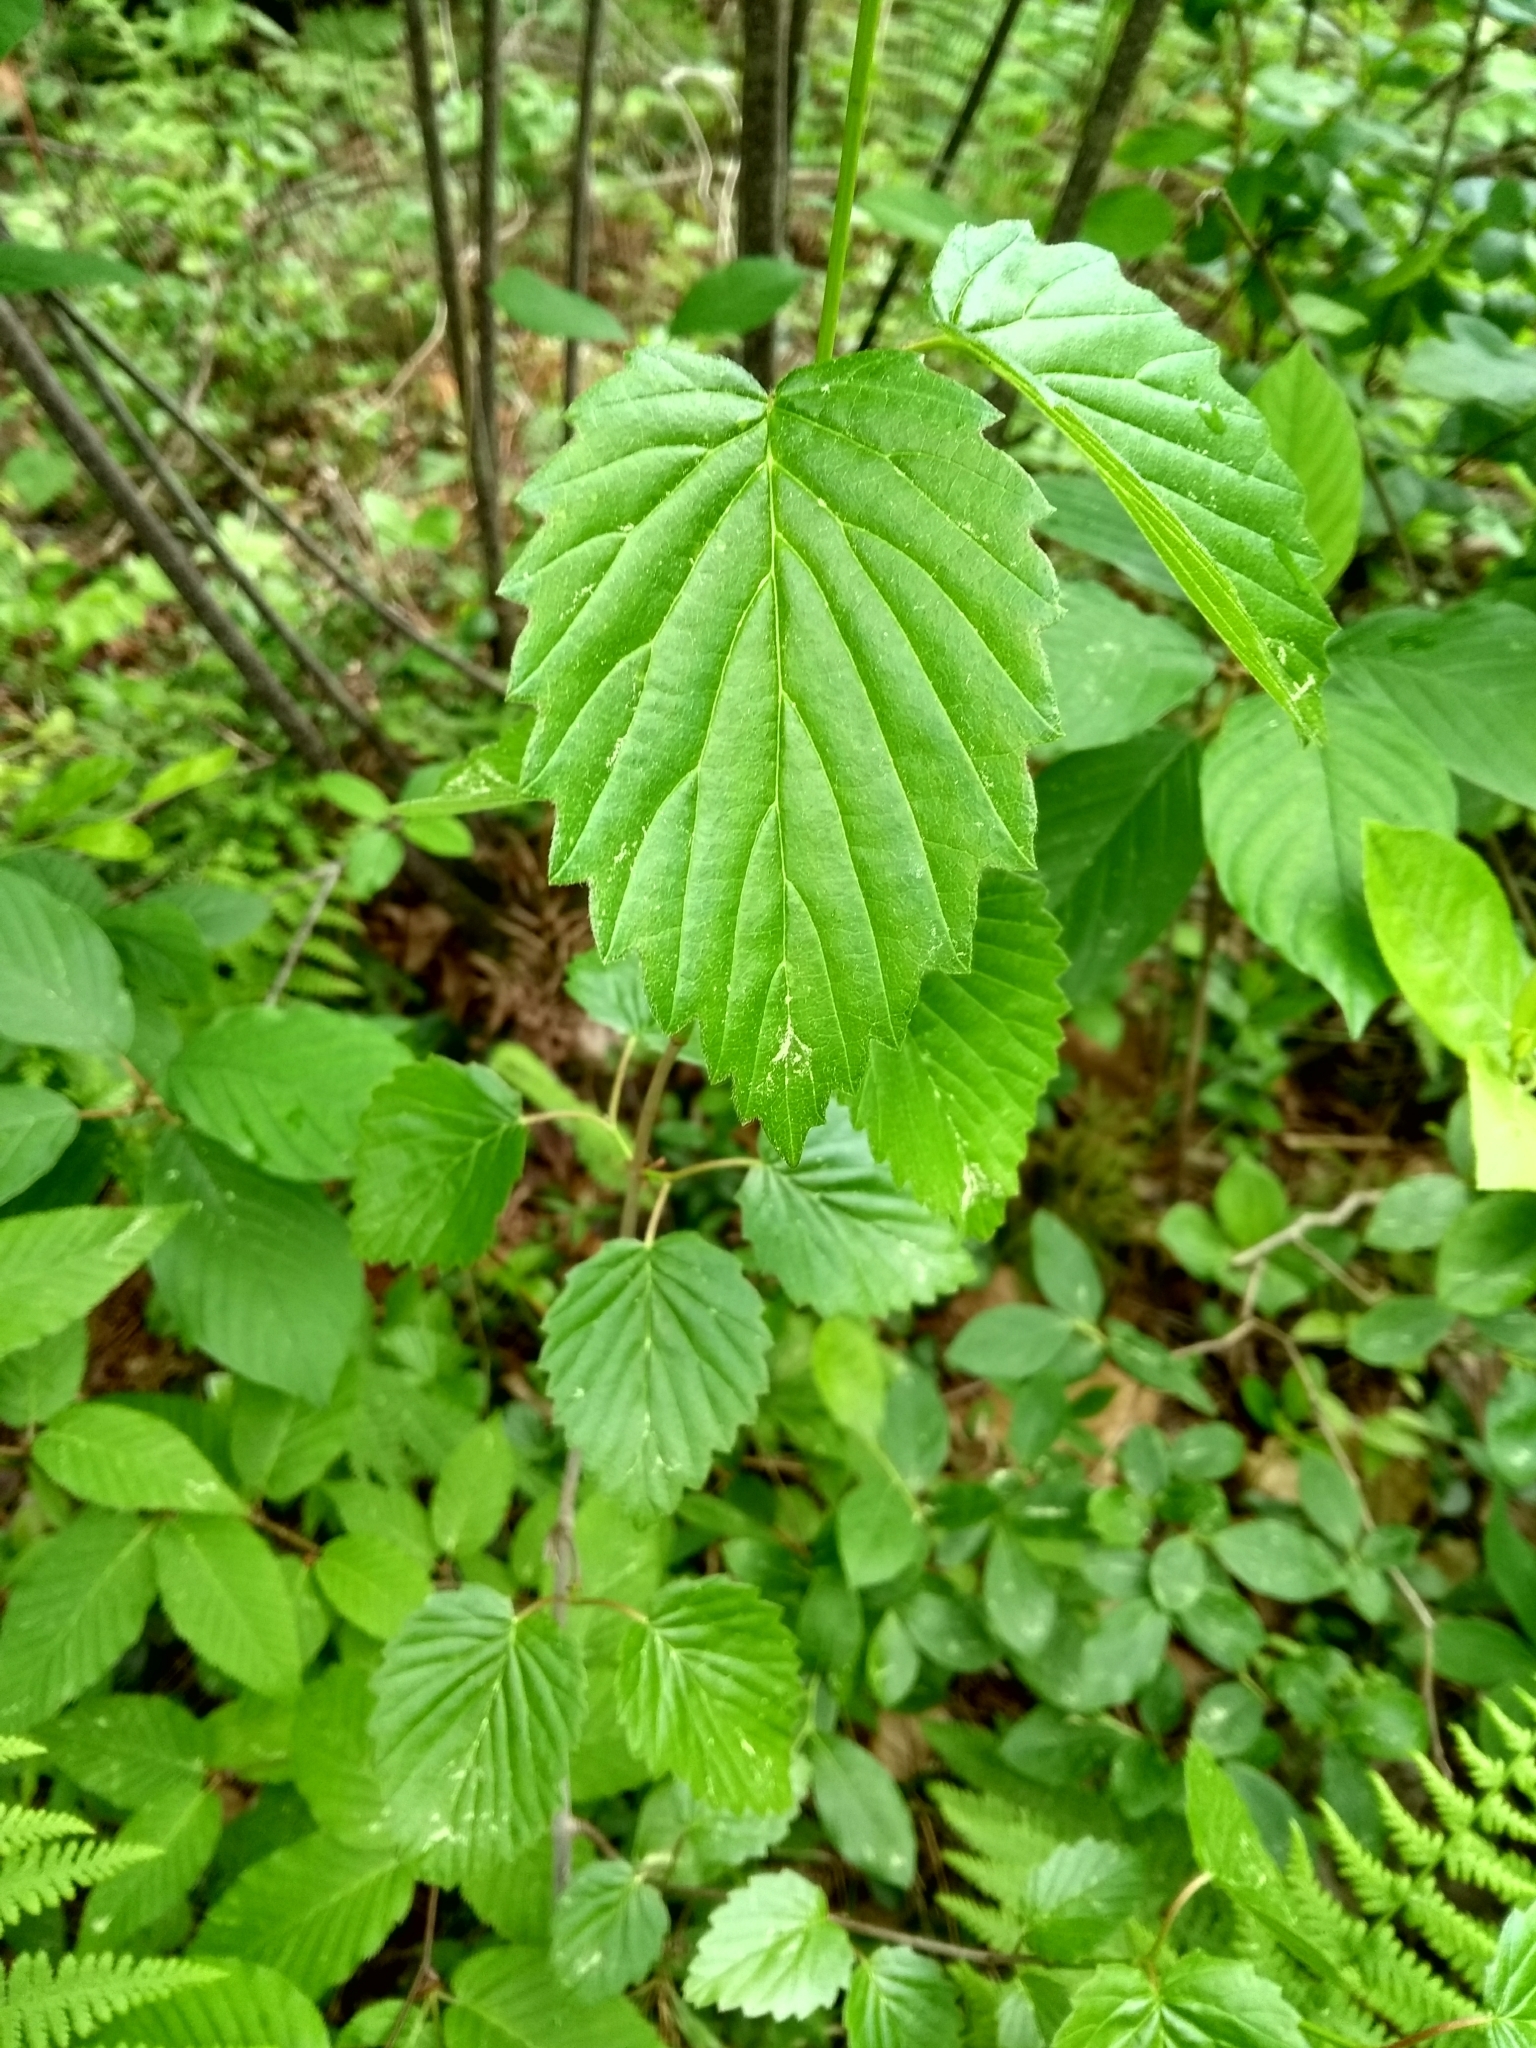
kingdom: Plantae
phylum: Tracheophyta
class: Magnoliopsida
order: Dipsacales
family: Viburnaceae
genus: Viburnum
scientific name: Viburnum dentatum
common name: Arrow-wood
